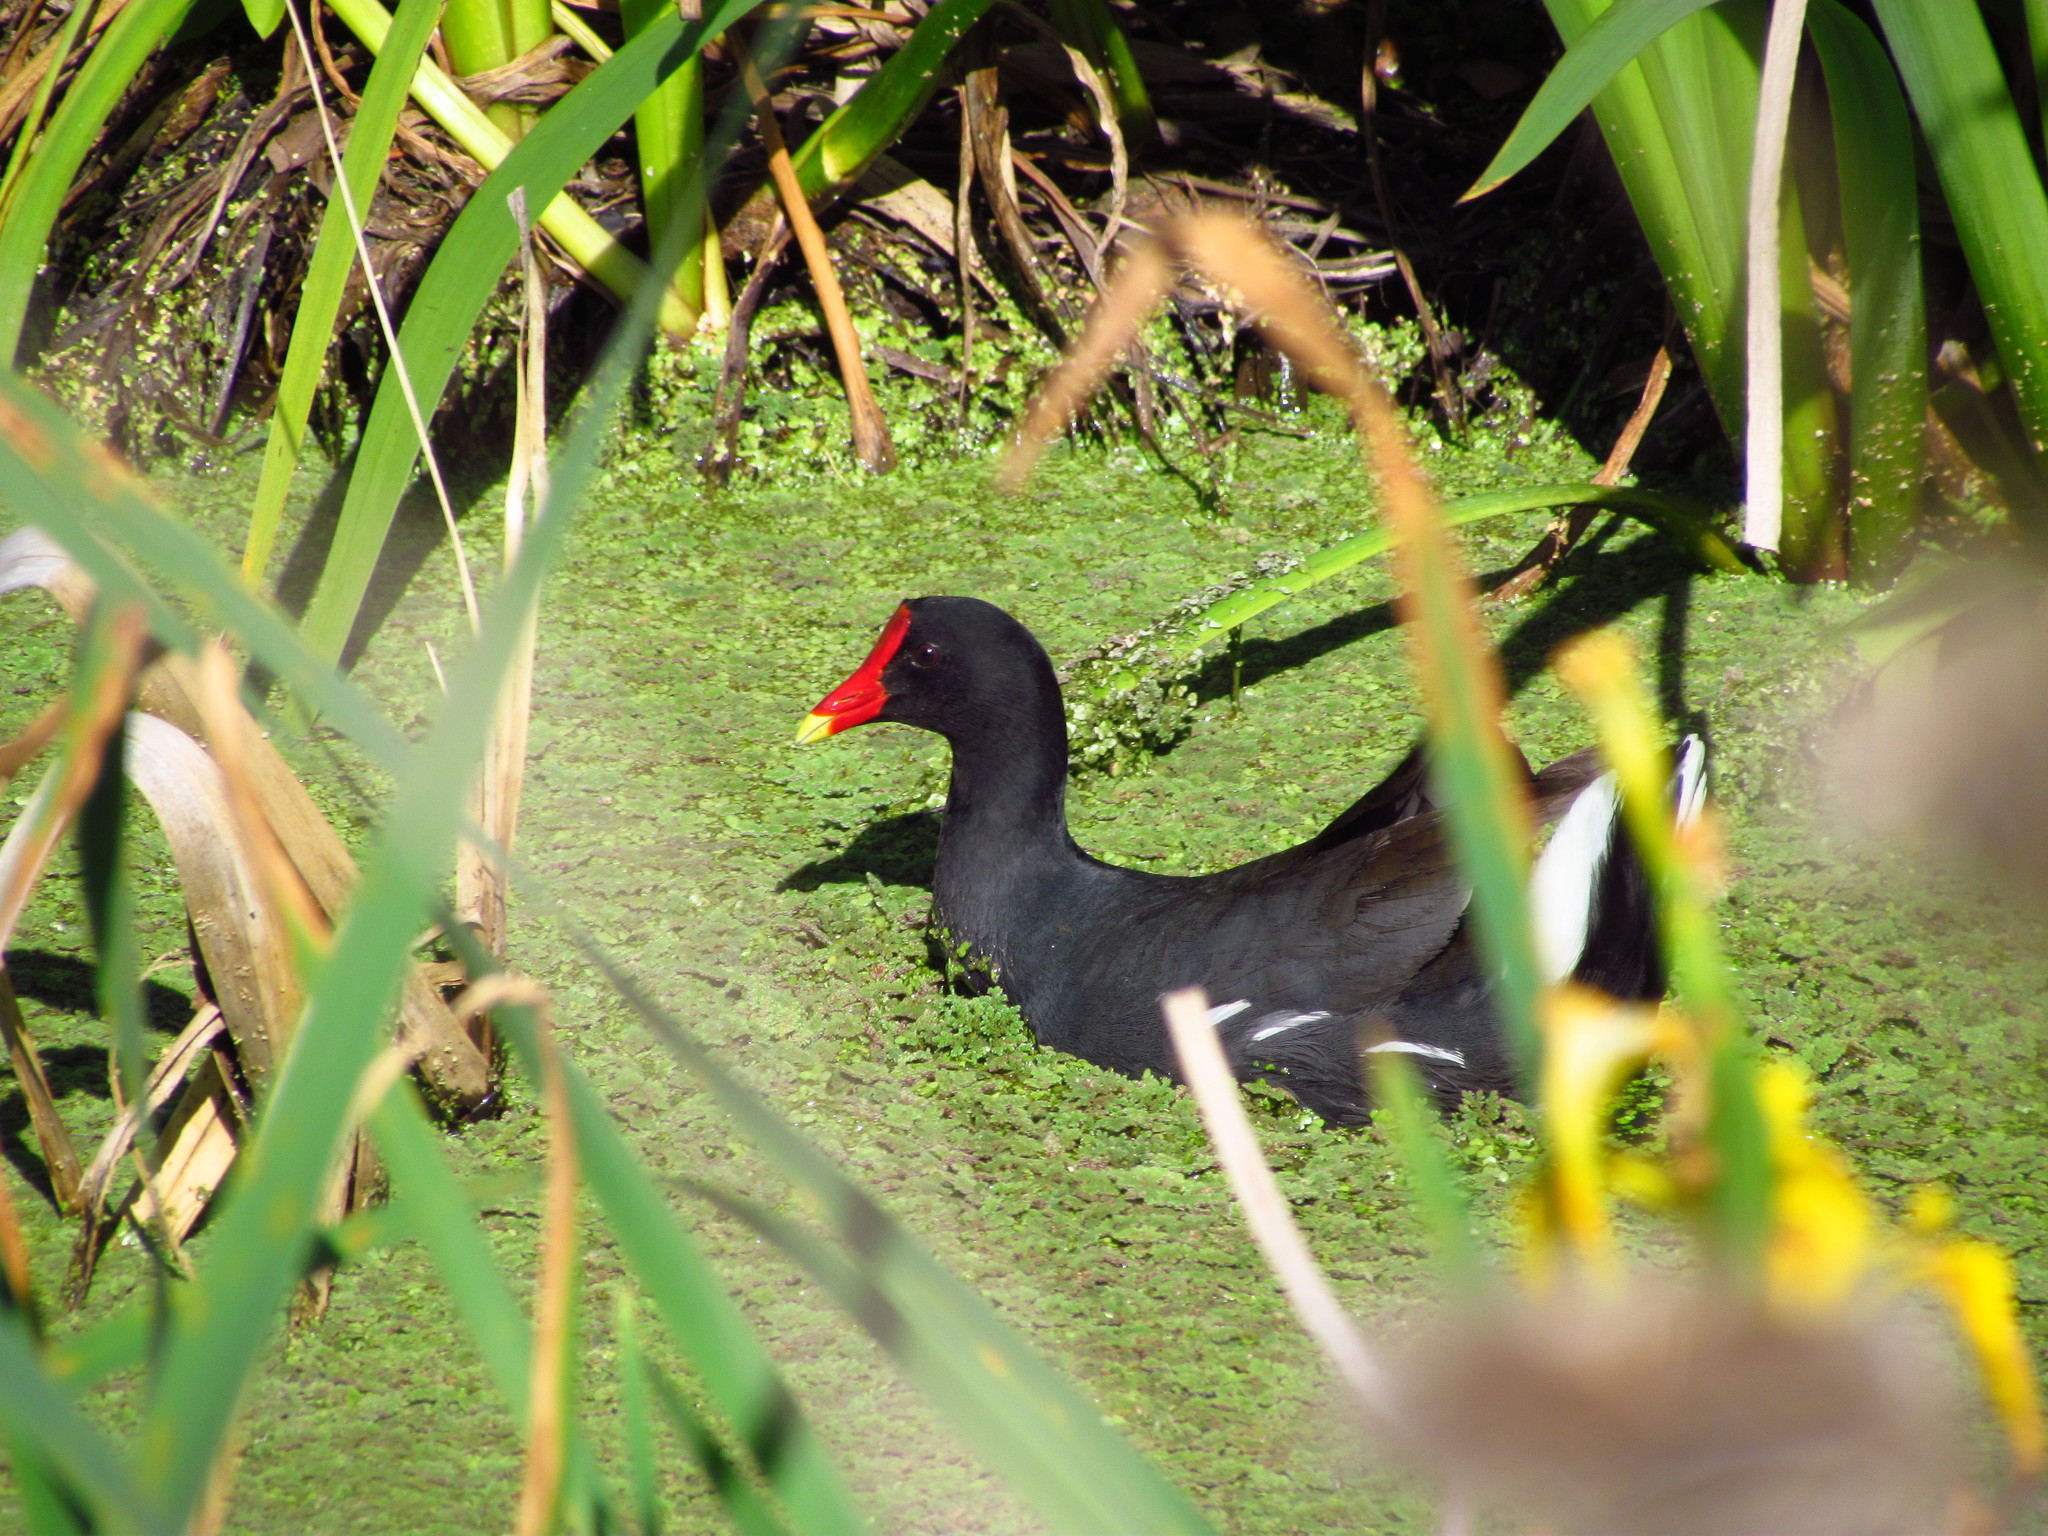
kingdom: Animalia
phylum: Chordata
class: Aves
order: Gruiformes
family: Rallidae
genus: Gallinula
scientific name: Gallinula chloropus
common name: Common moorhen
